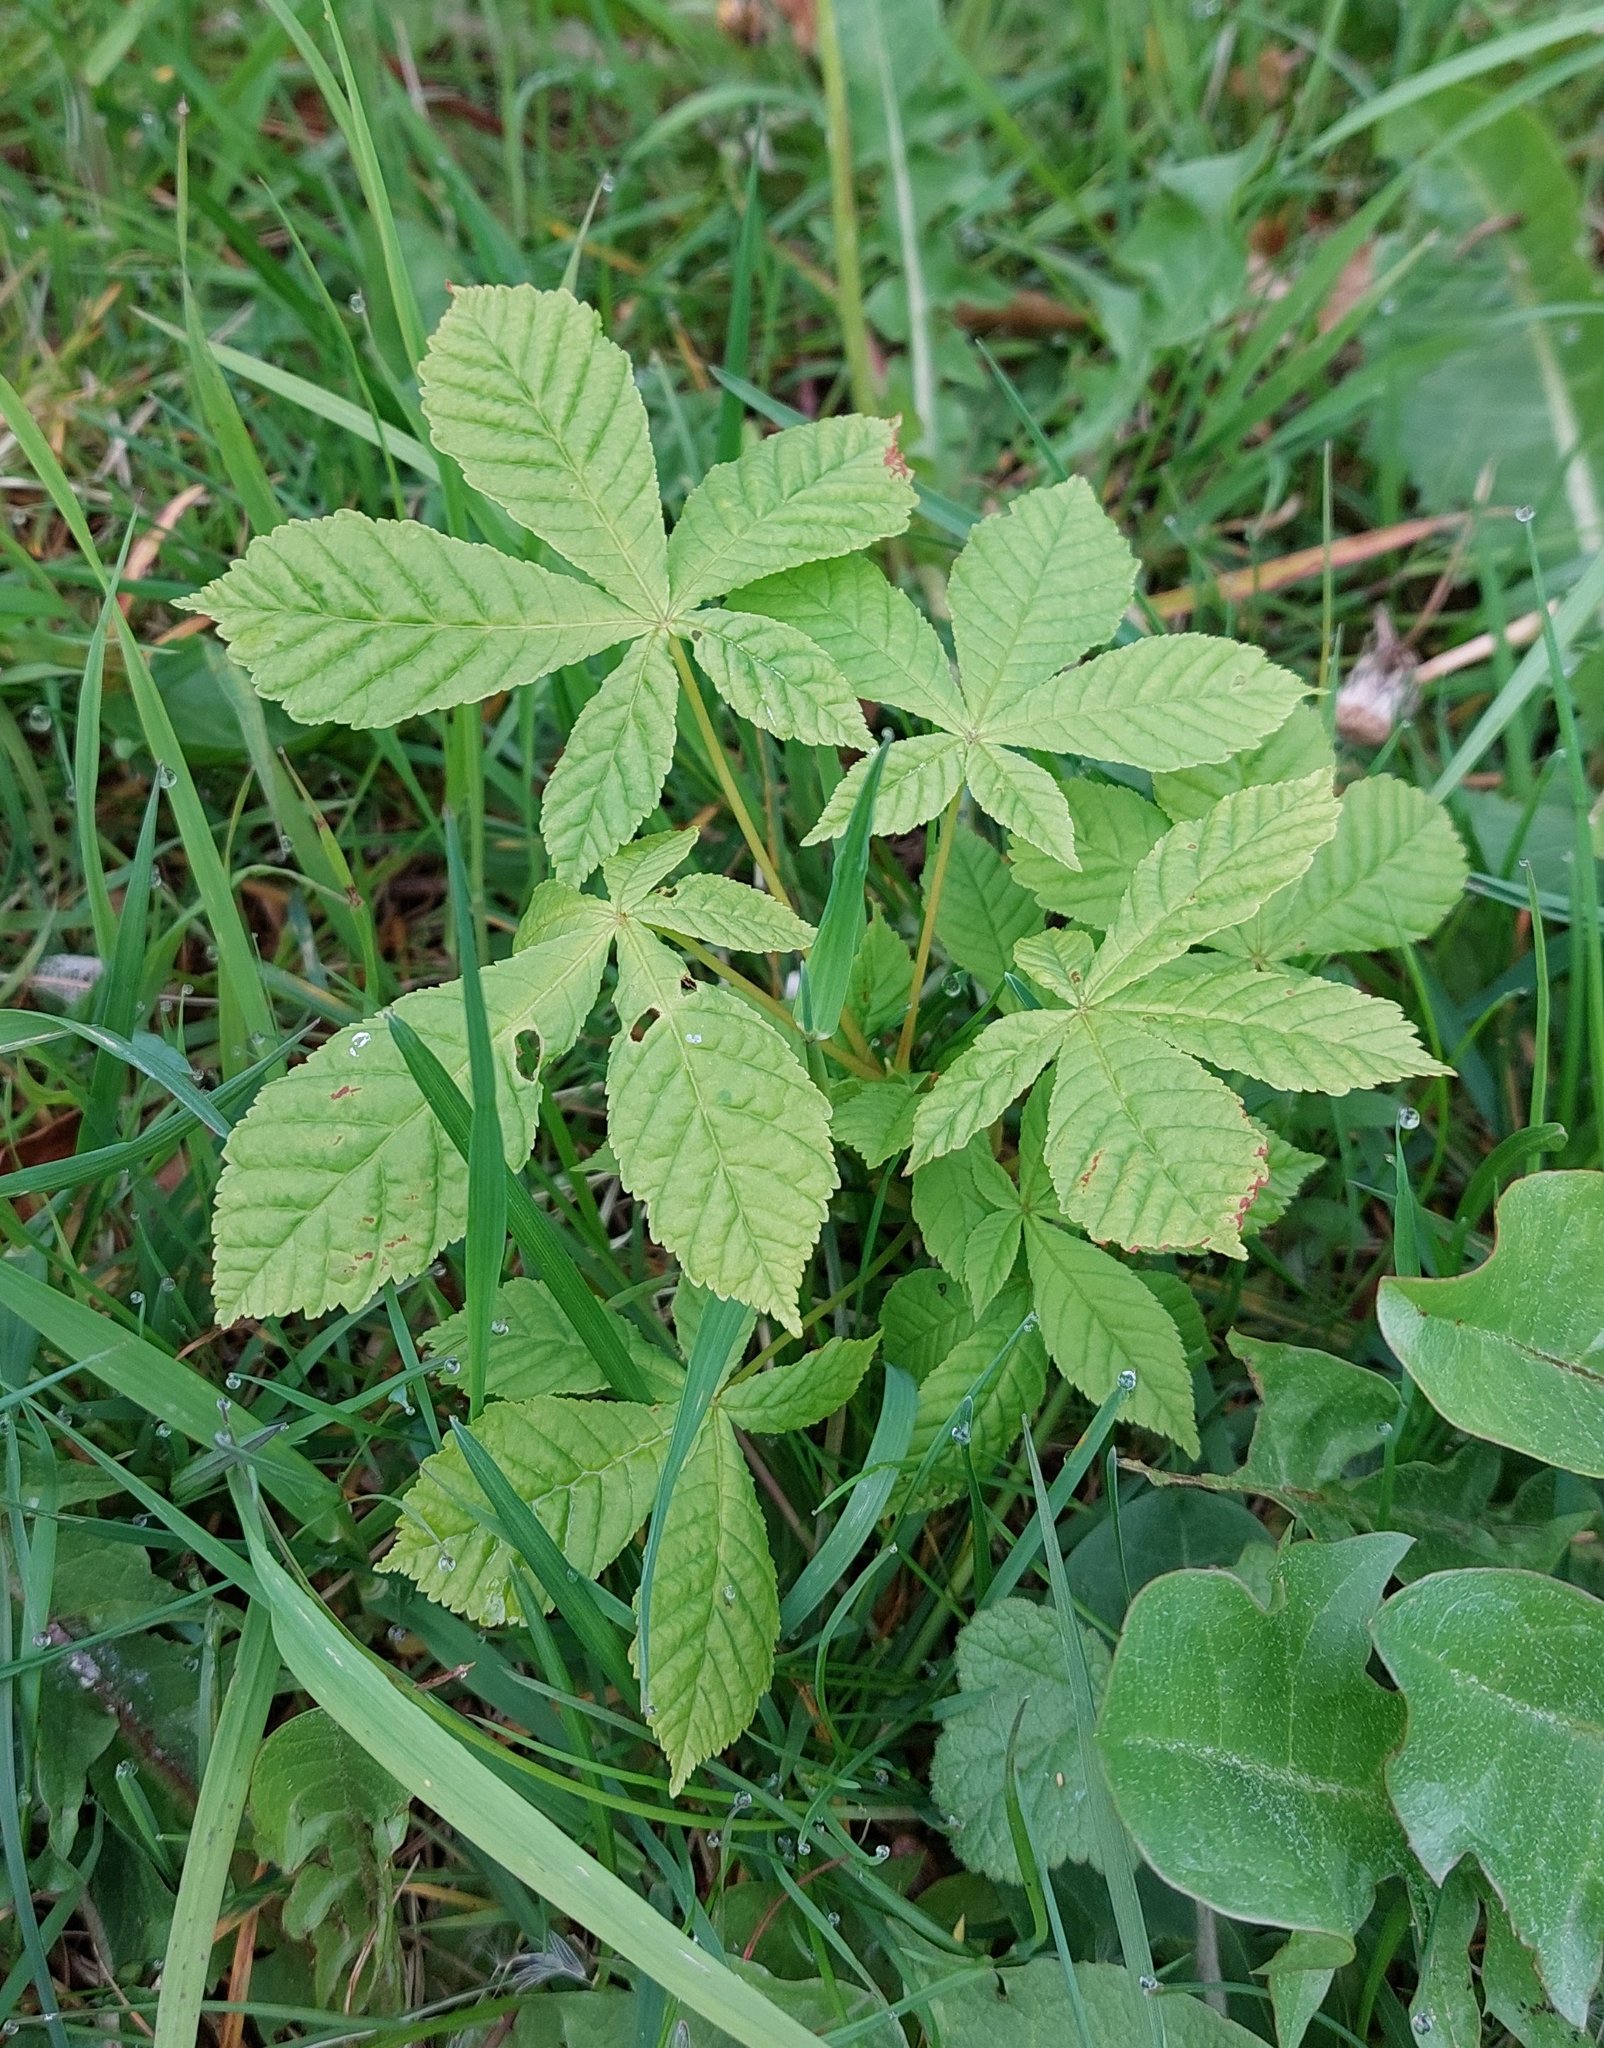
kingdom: Plantae
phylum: Tracheophyta
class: Magnoliopsida
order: Sapindales
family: Sapindaceae
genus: Aesculus
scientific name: Aesculus hippocastanum
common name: Horse-chestnut
